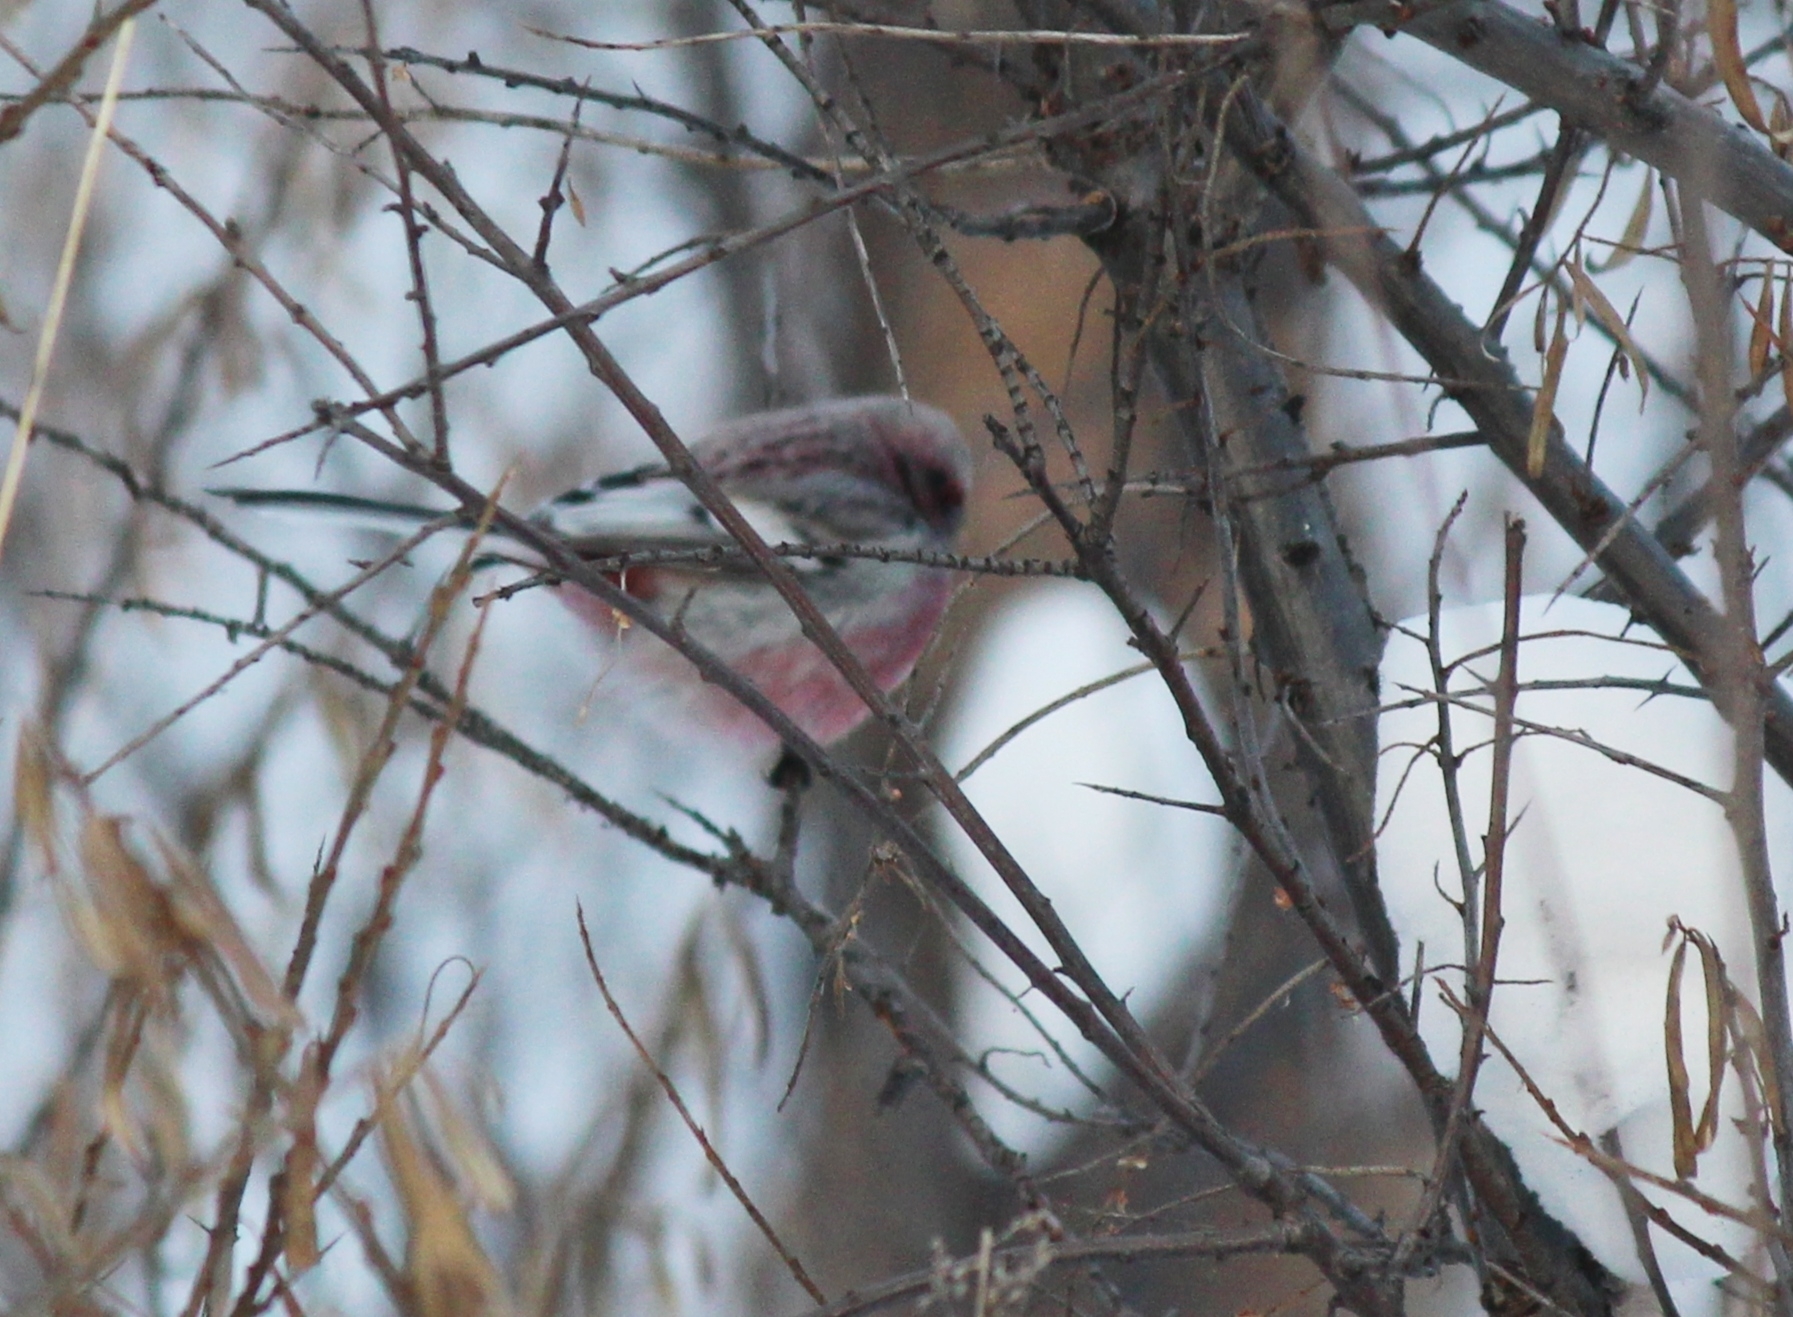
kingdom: Animalia
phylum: Chordata
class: Aves
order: Passeriformes
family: Fringillidae
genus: Carpodacus
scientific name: Carpodacus sibiricus
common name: Long-tailed rosefinch
